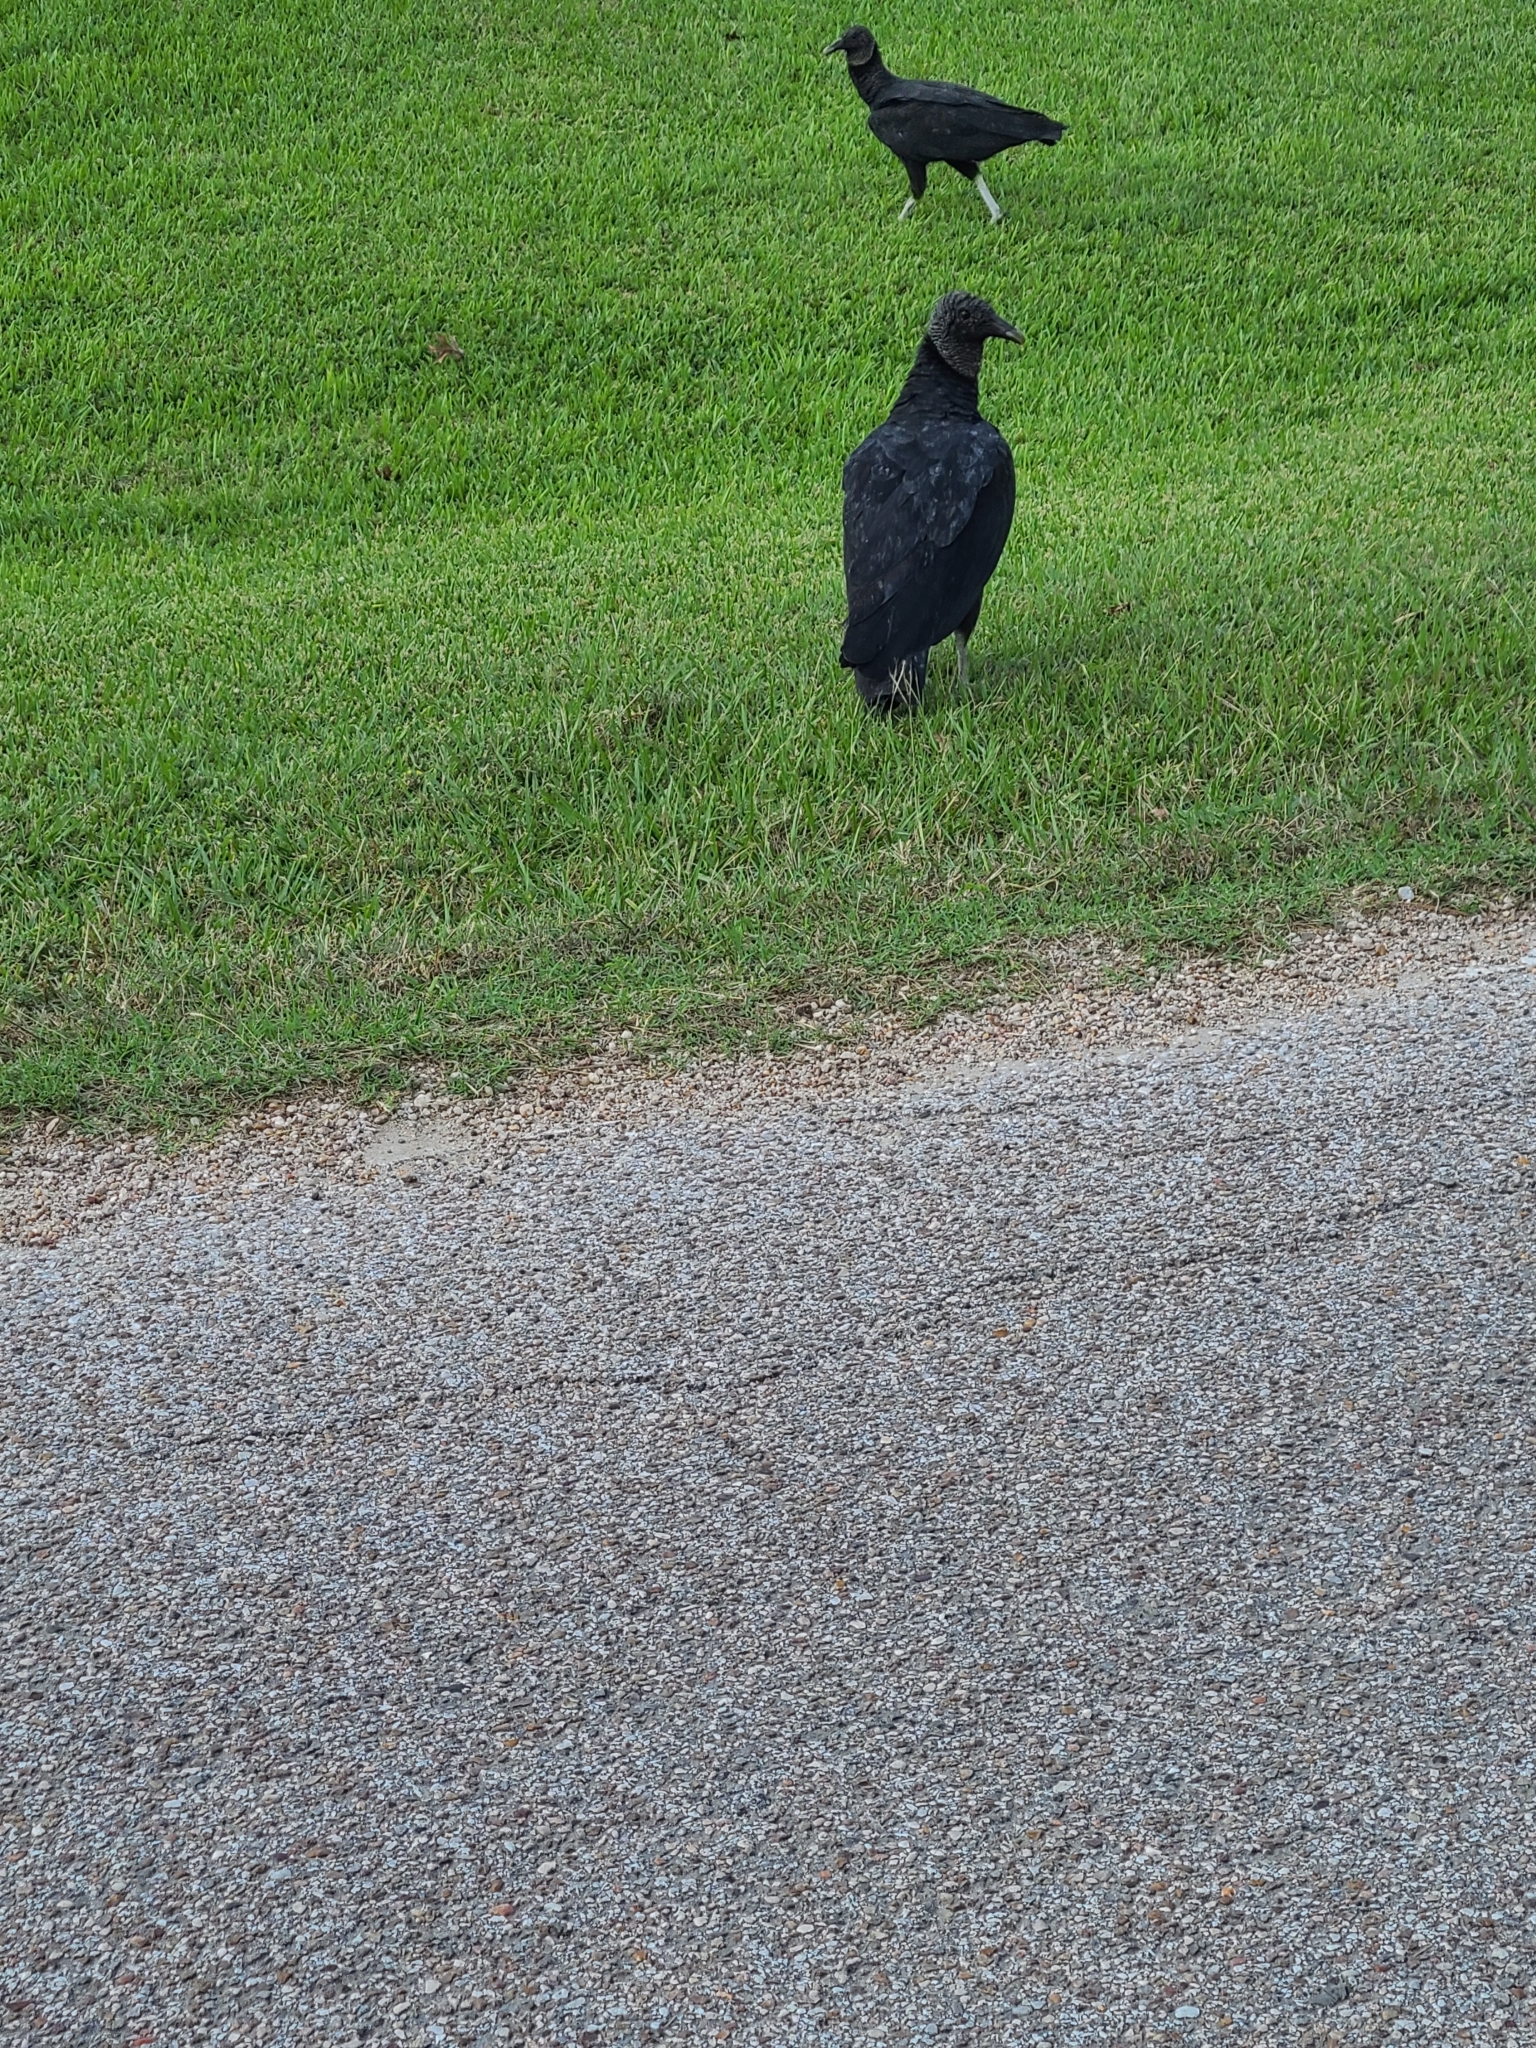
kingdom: Animalia
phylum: Chordata
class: Aves
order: Accipitriformes
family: Cathartidae
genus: Coragyps
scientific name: Coragyps atratus
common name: Black vulture
